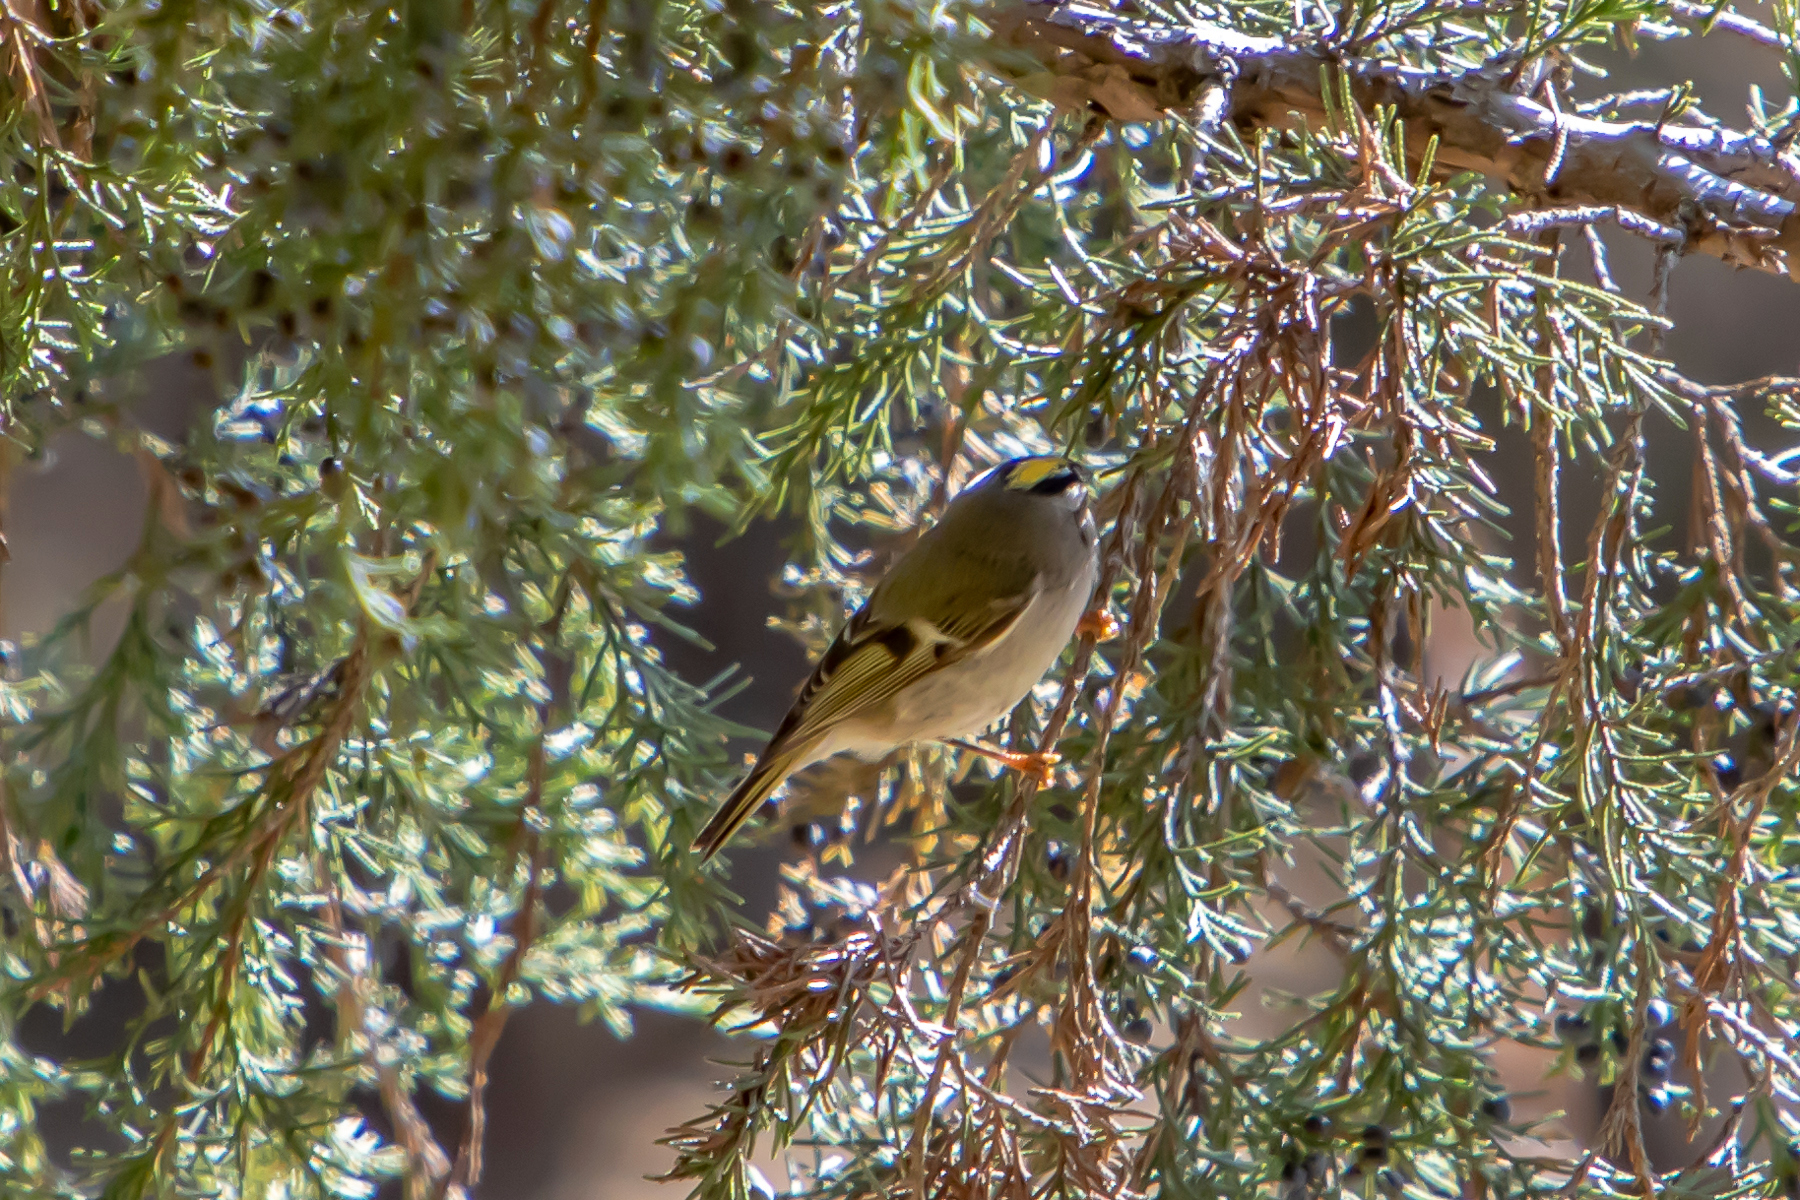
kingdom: Animalia
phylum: Chordata
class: Aves
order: Passeriformes
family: Regulidae
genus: Regulus
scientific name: Regulus satrapa
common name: Golden-crowned kinglet
